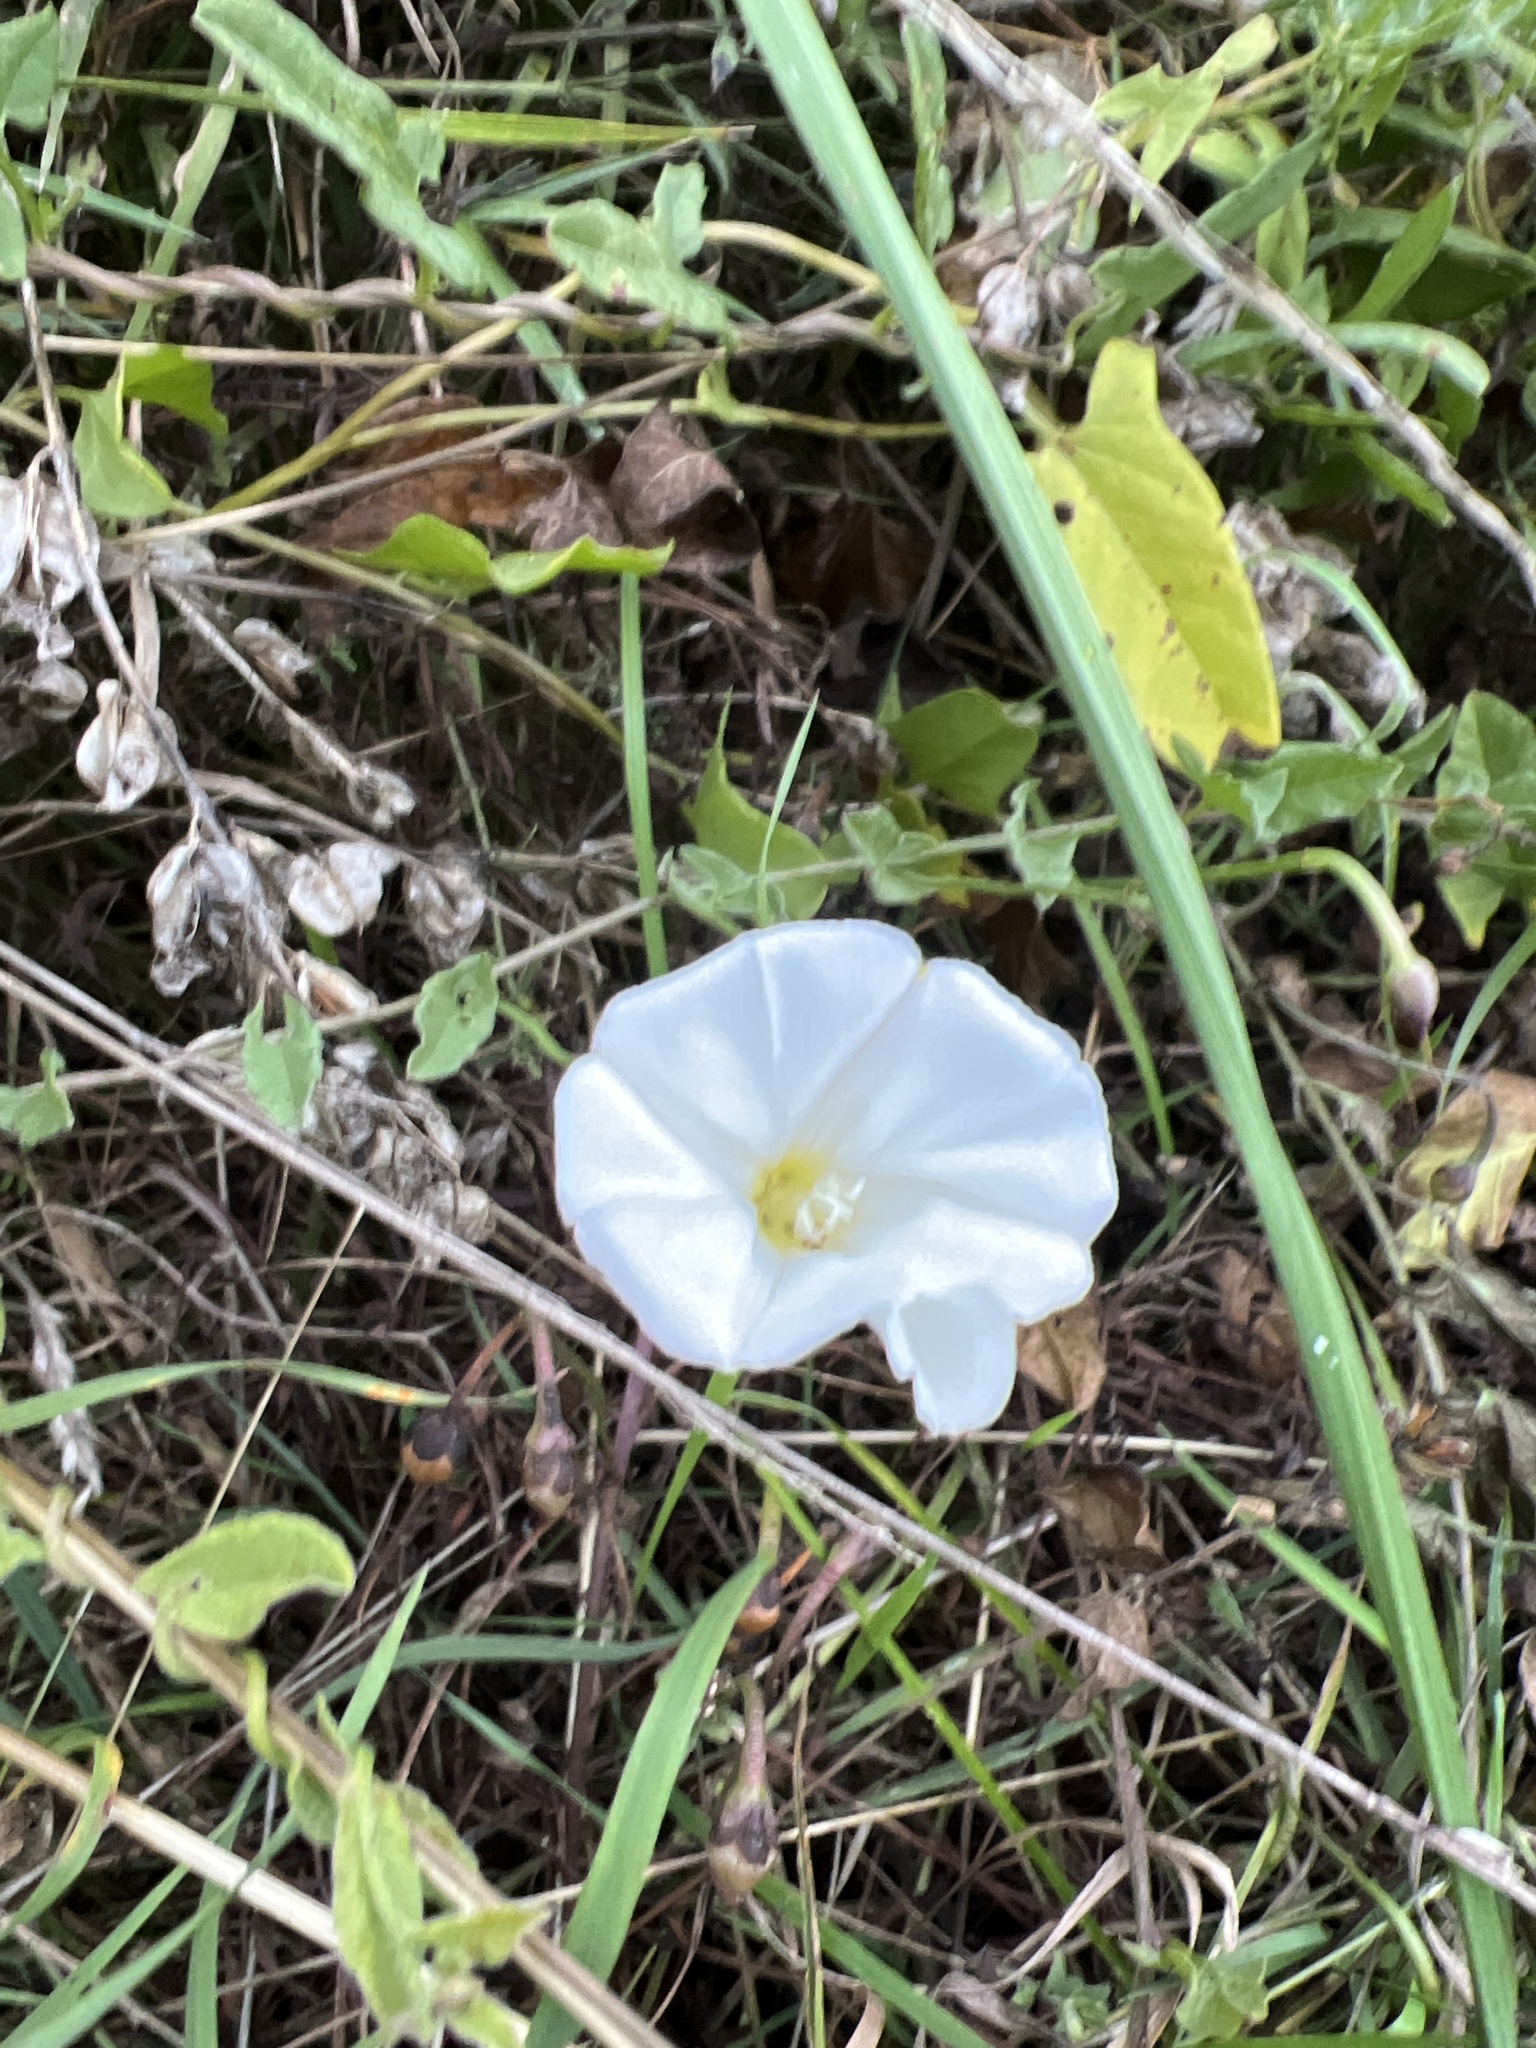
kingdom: Plantae
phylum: Tracheophyta
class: Magnoliopsida
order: Solanales
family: Convolvulaceae
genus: Convolvulus
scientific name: Convolvulus arvensis
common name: Field bindweed
